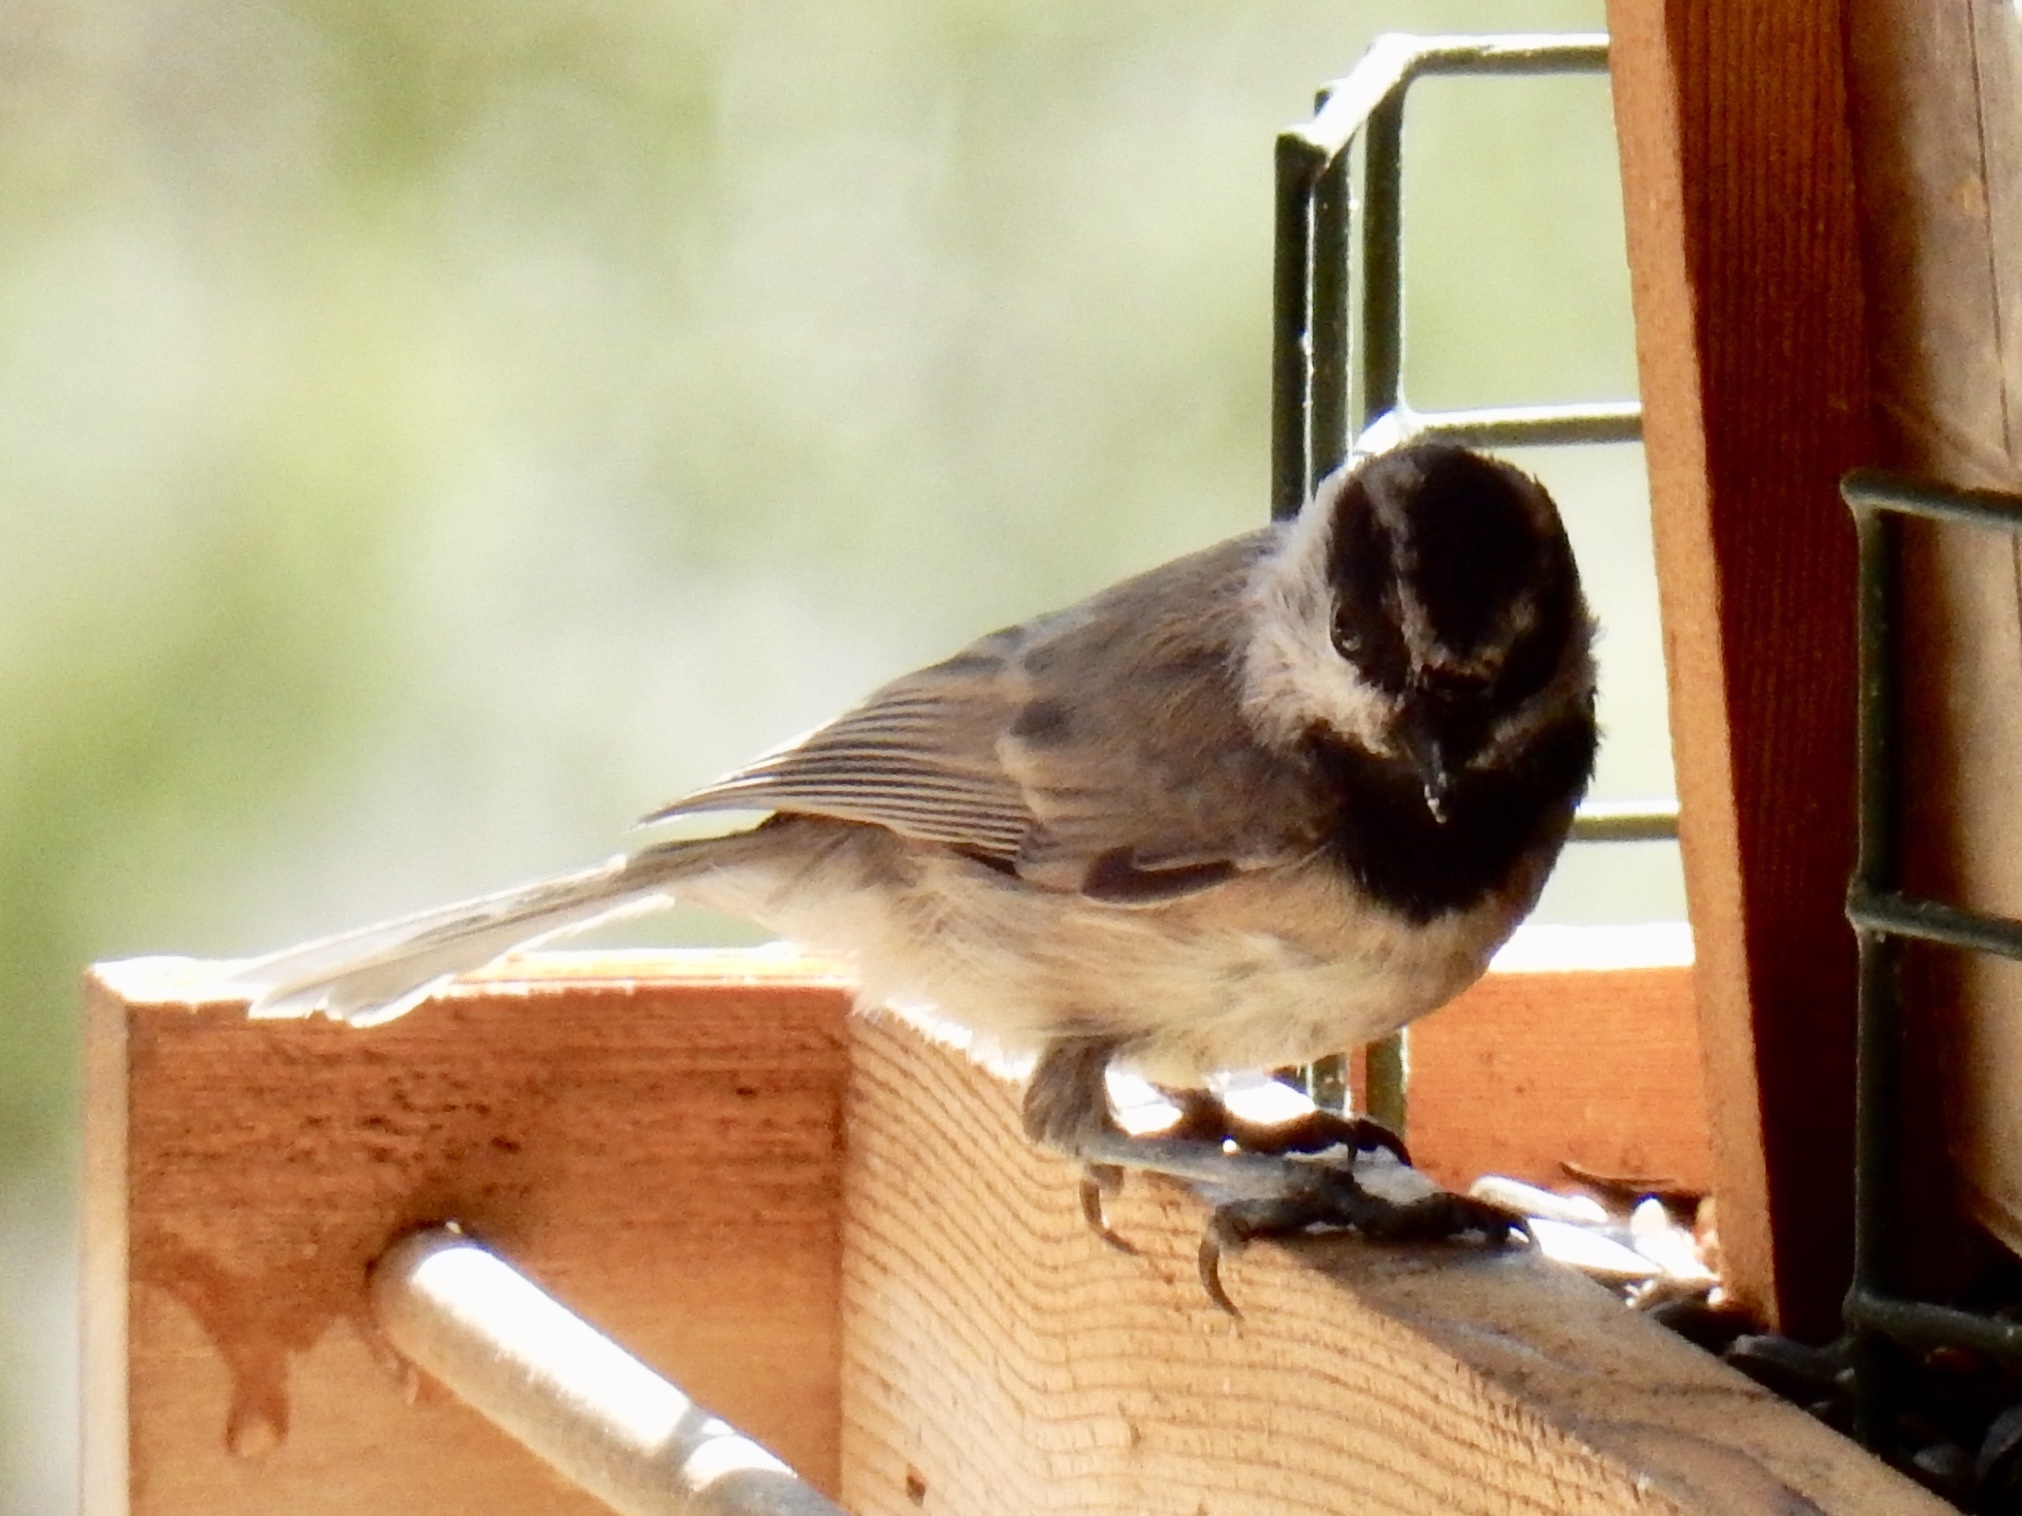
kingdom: Animalia
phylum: Chordata
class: Aves
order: Passeriformes
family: Paridae
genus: Poecile
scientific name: Poecile gambeli
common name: Mountain chickadee
